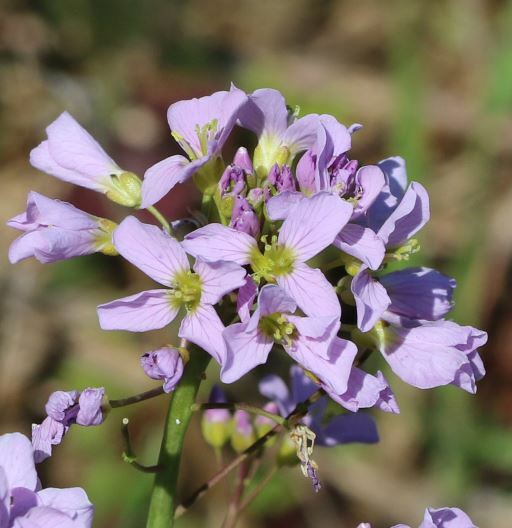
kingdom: Plantae
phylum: Tracheophyta
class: Magnoliopsida
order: Brassicales
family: Brassicaceae
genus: Cardamine
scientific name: Cardamine pratensis
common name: Cuckoo flower
